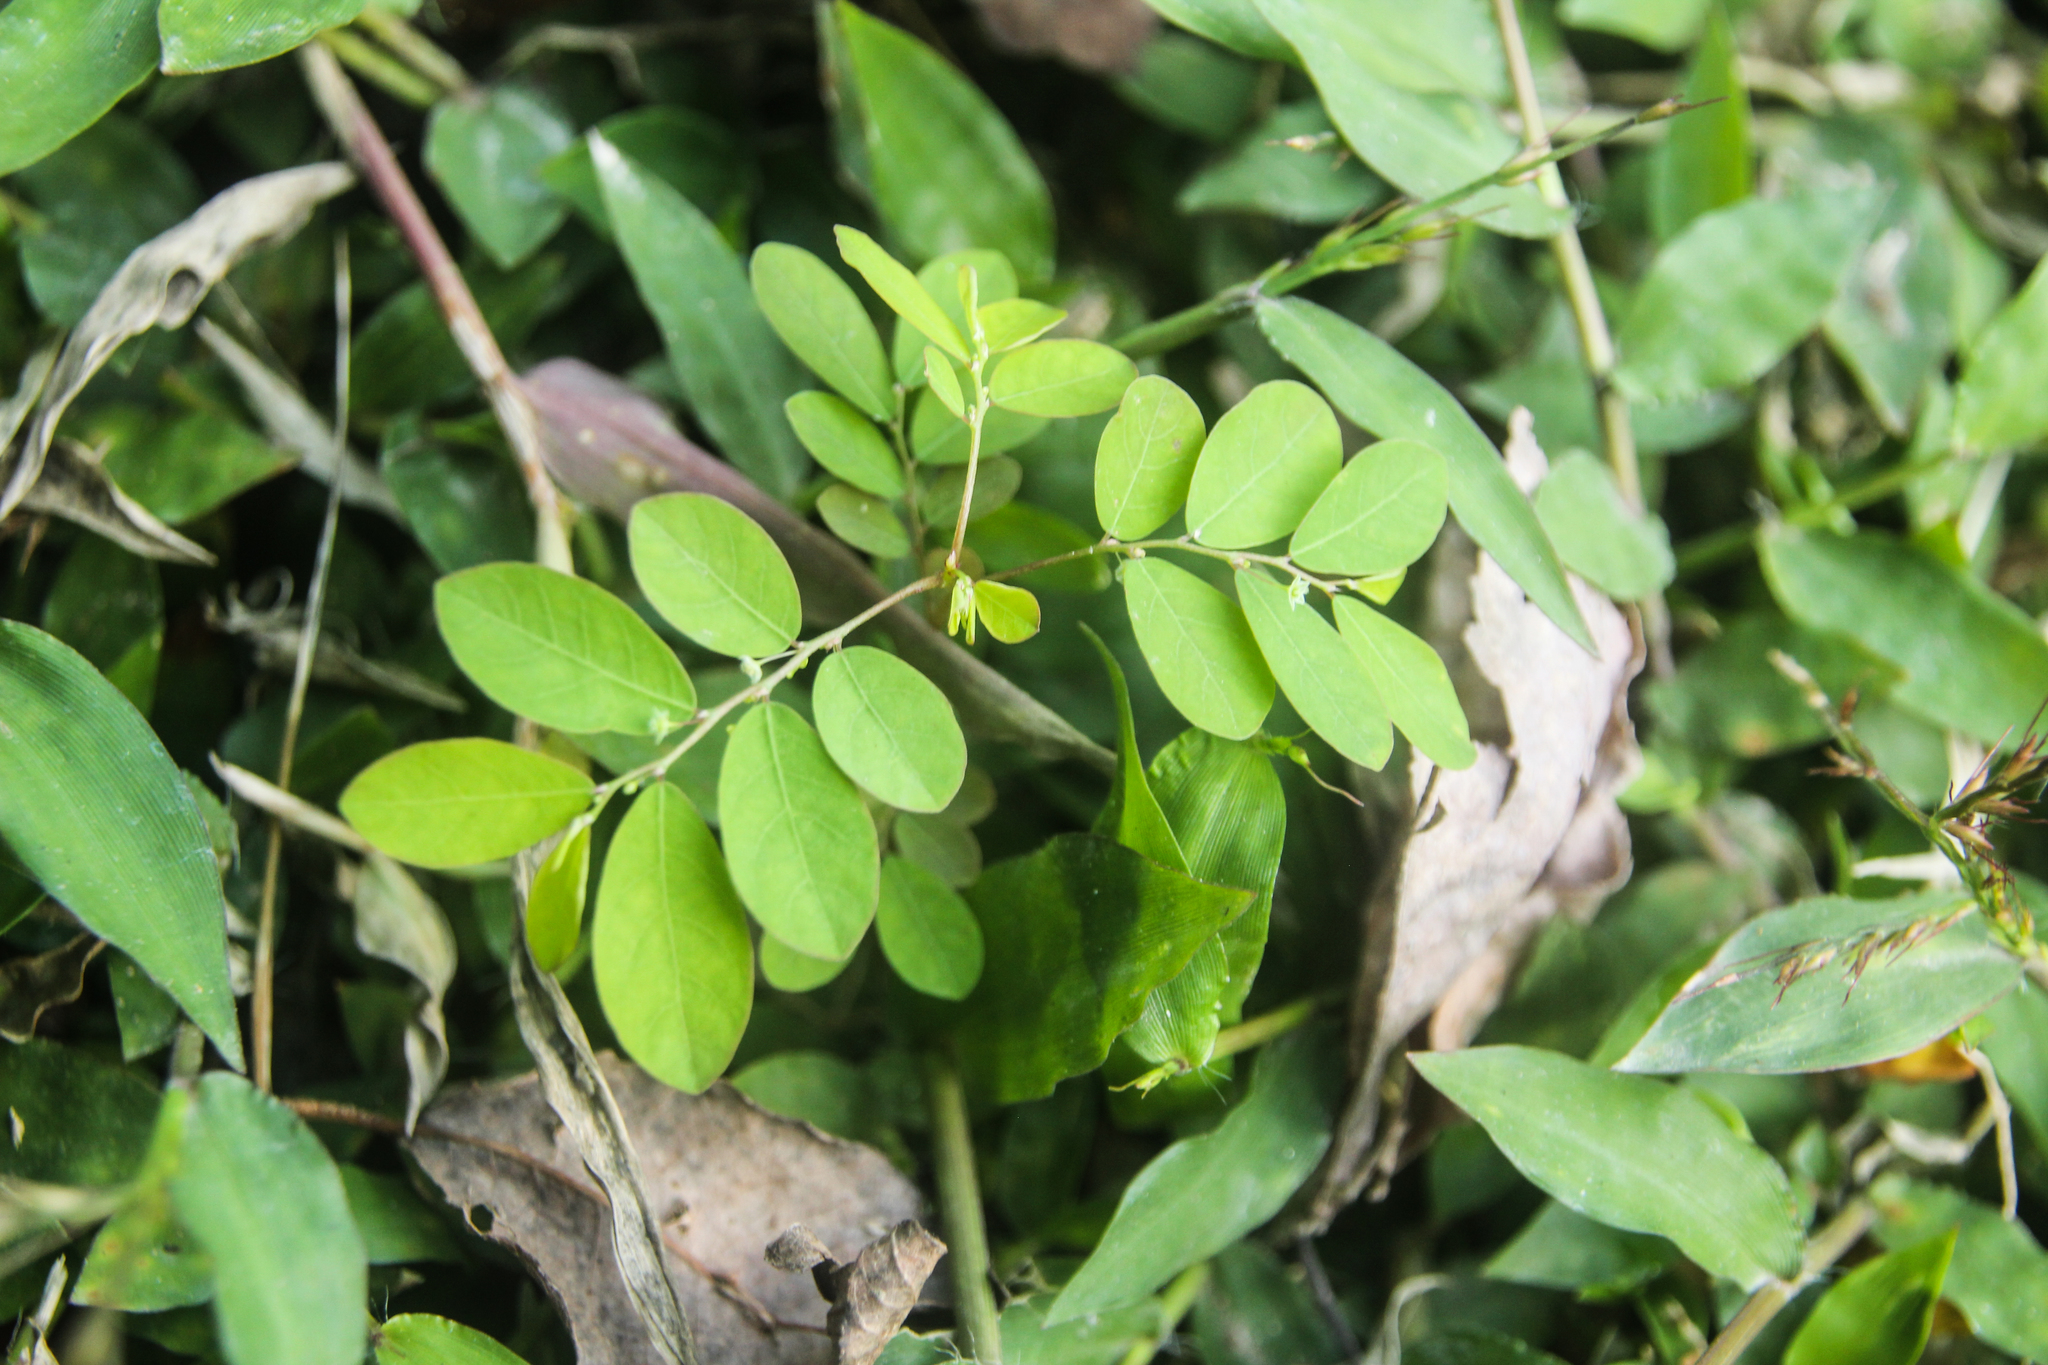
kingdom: Plantae
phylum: Tracheophyta
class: Magnoliopsida
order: Malpighiales
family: Phyllanthaceae
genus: Phyllanthus
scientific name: Phyllanthus tenellus
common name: Mascarene island leaf-flower
